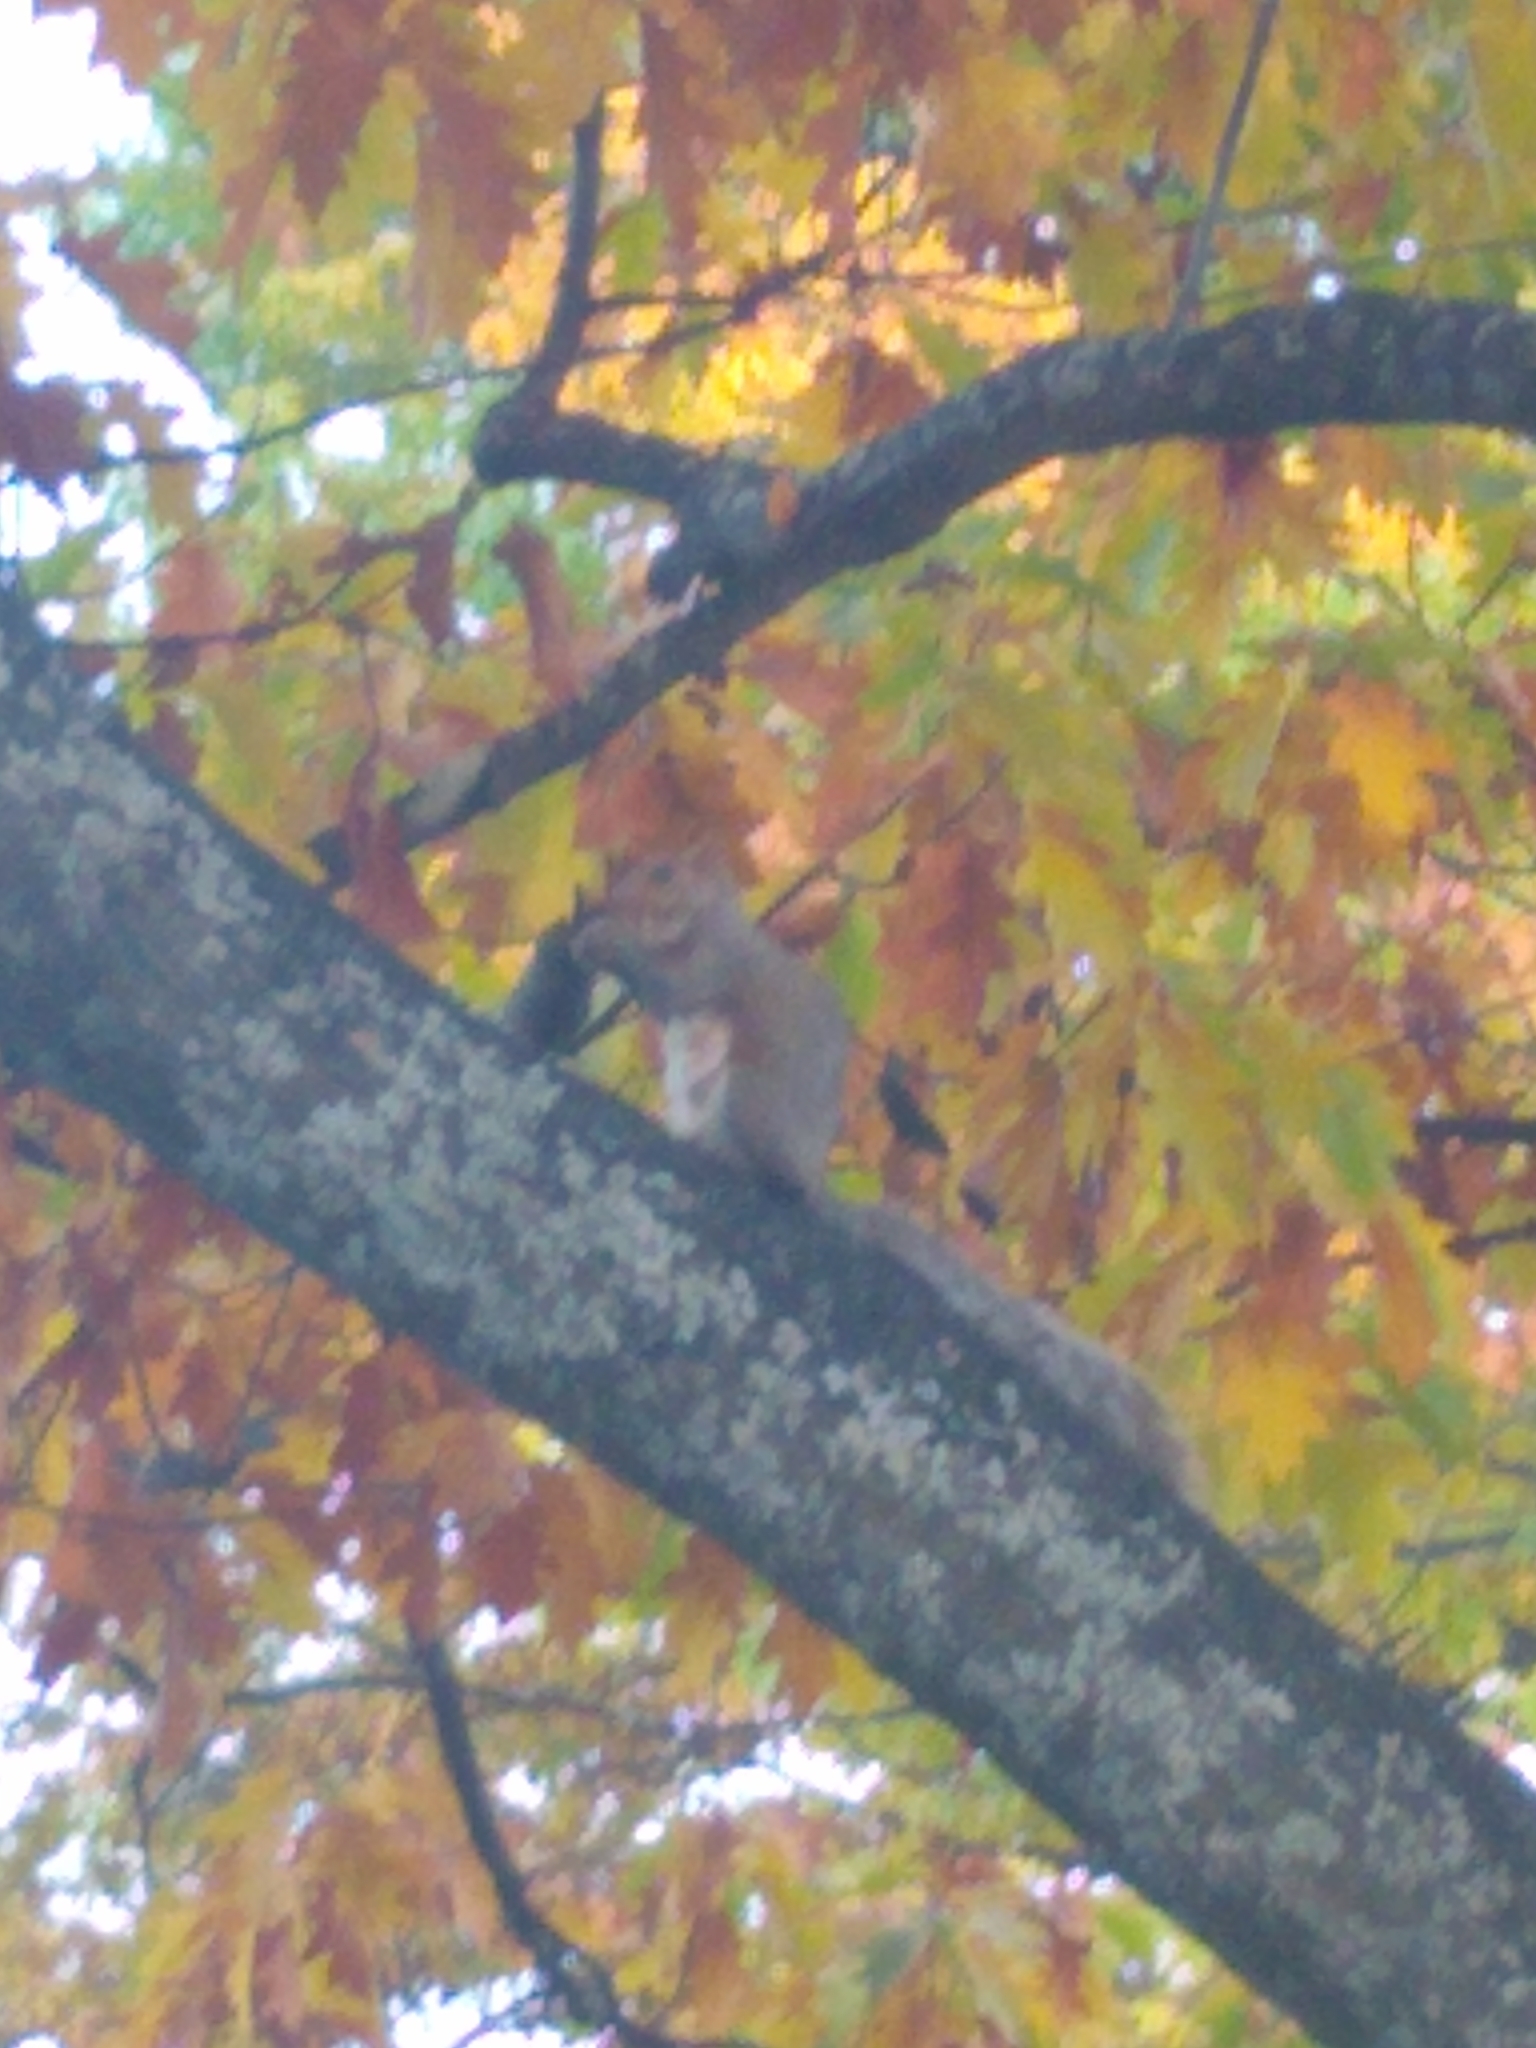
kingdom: Animalia
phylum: Chordata
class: Mammalia
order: Rodentia
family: Sciuridae
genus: Sciurus
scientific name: Sciurus carolinensis
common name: Eastern gray squirrel
